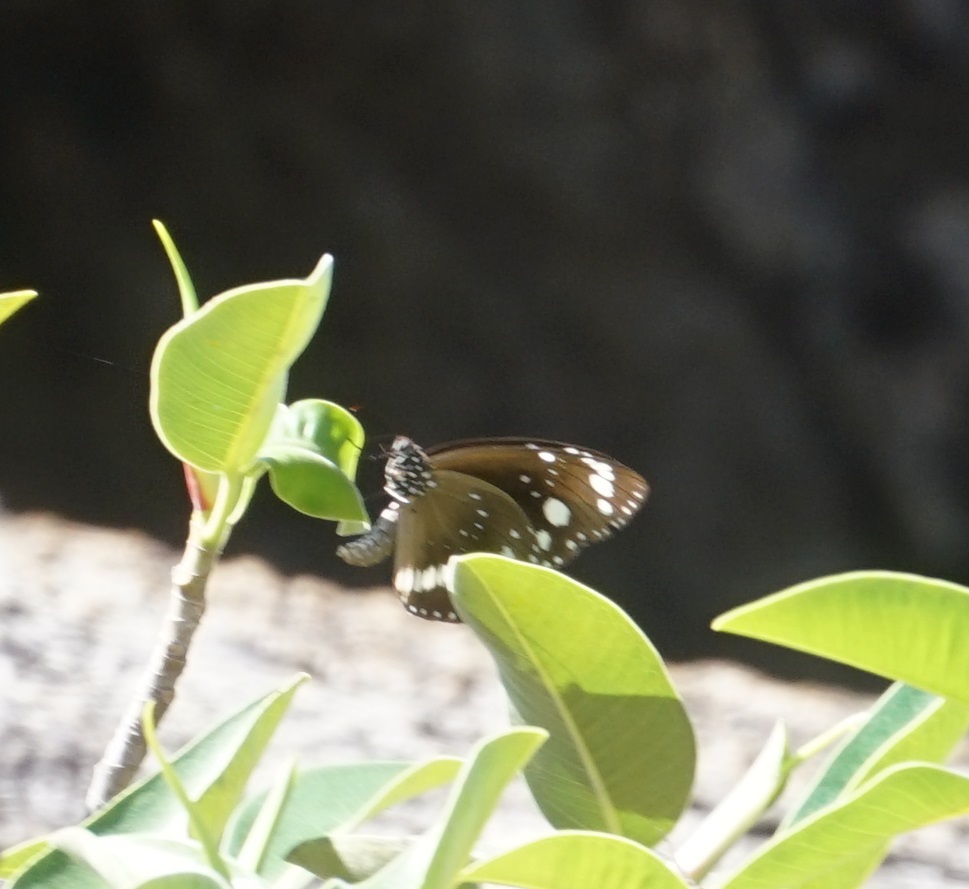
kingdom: Animalia
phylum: Arthropoda
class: Insecta
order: Lepidoptera
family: Nymphalidae
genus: Euploea
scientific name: Euploea core
